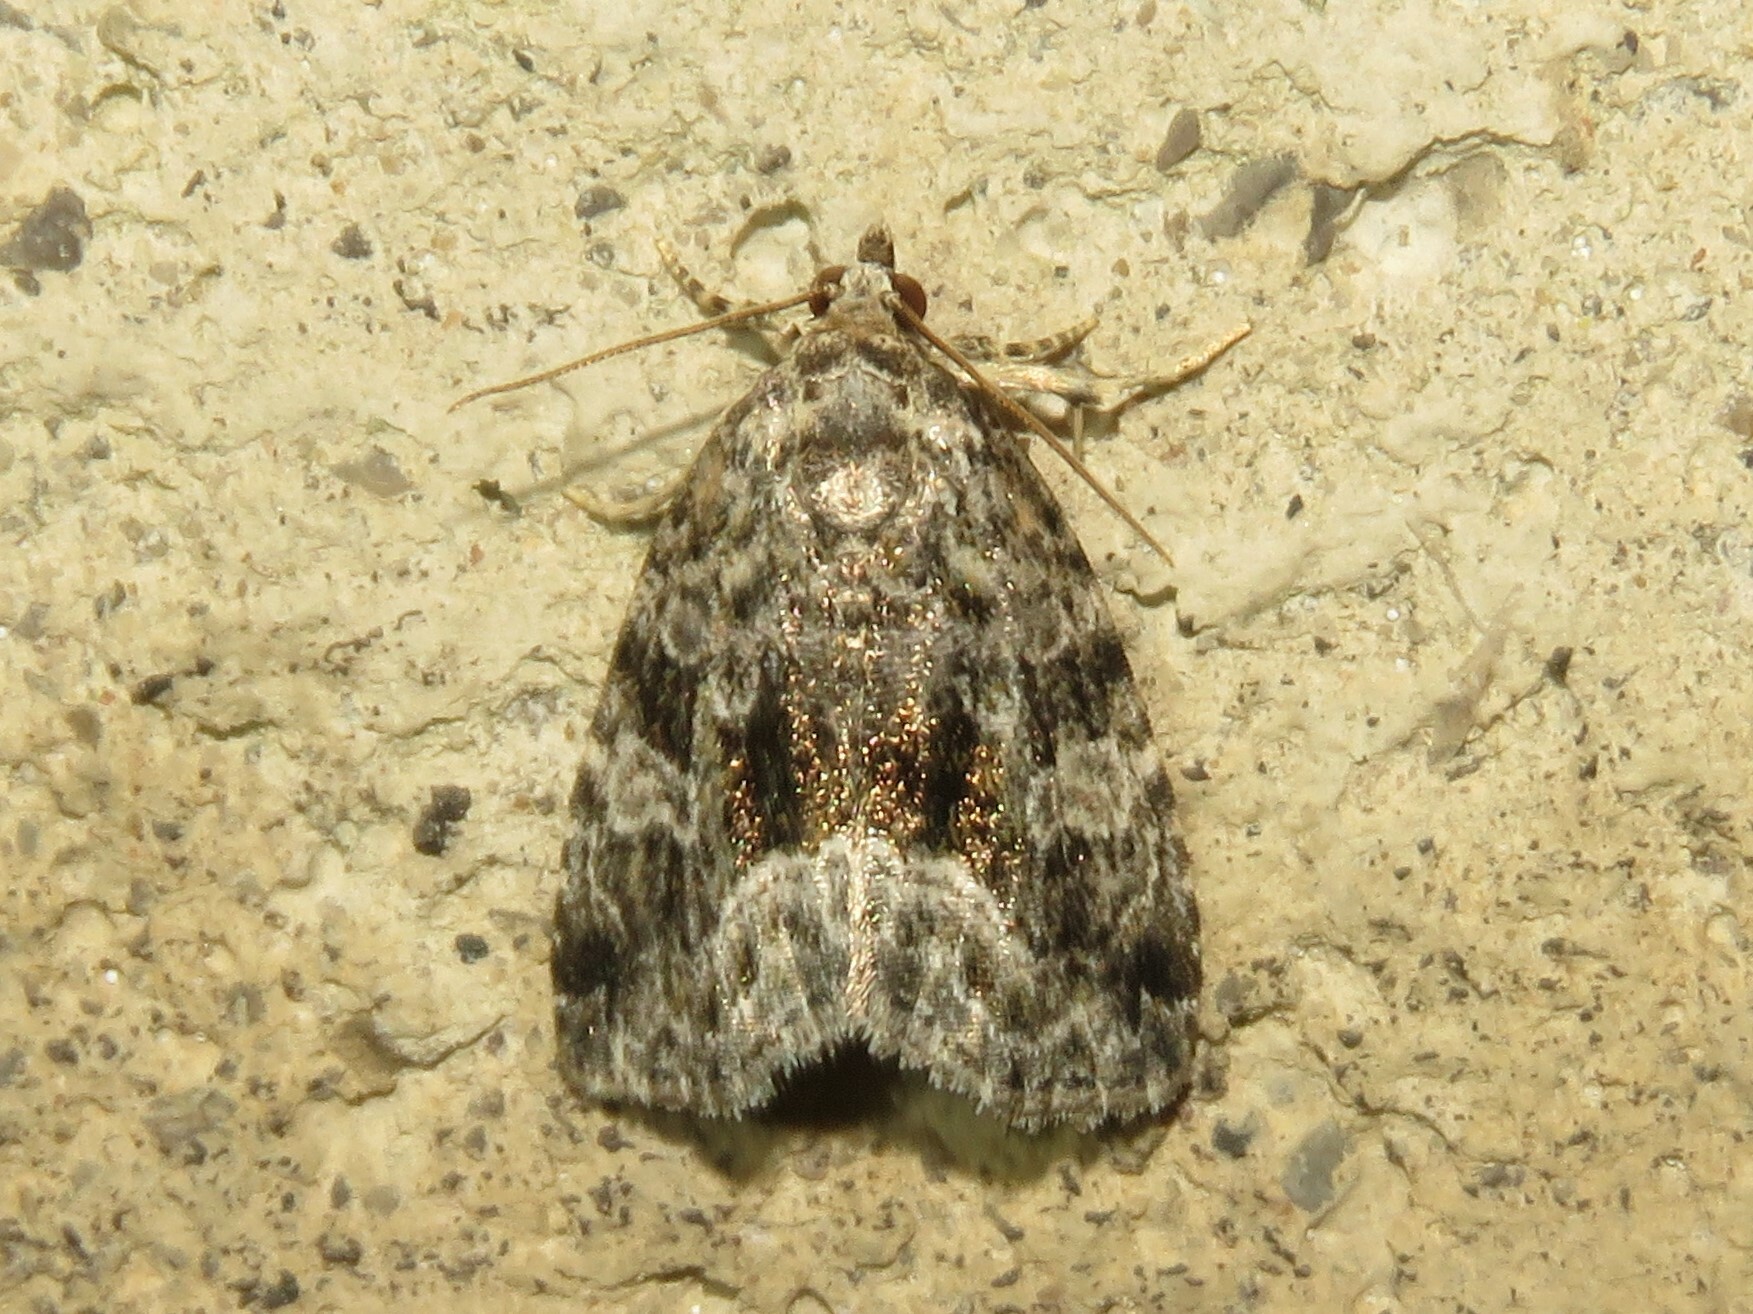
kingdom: Animalia
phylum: Arthropoda
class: Insecta
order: Lepidoptera
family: Noctuidae
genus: Protodeltote
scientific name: Protodeltote muscosula
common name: Large mossy glyph
